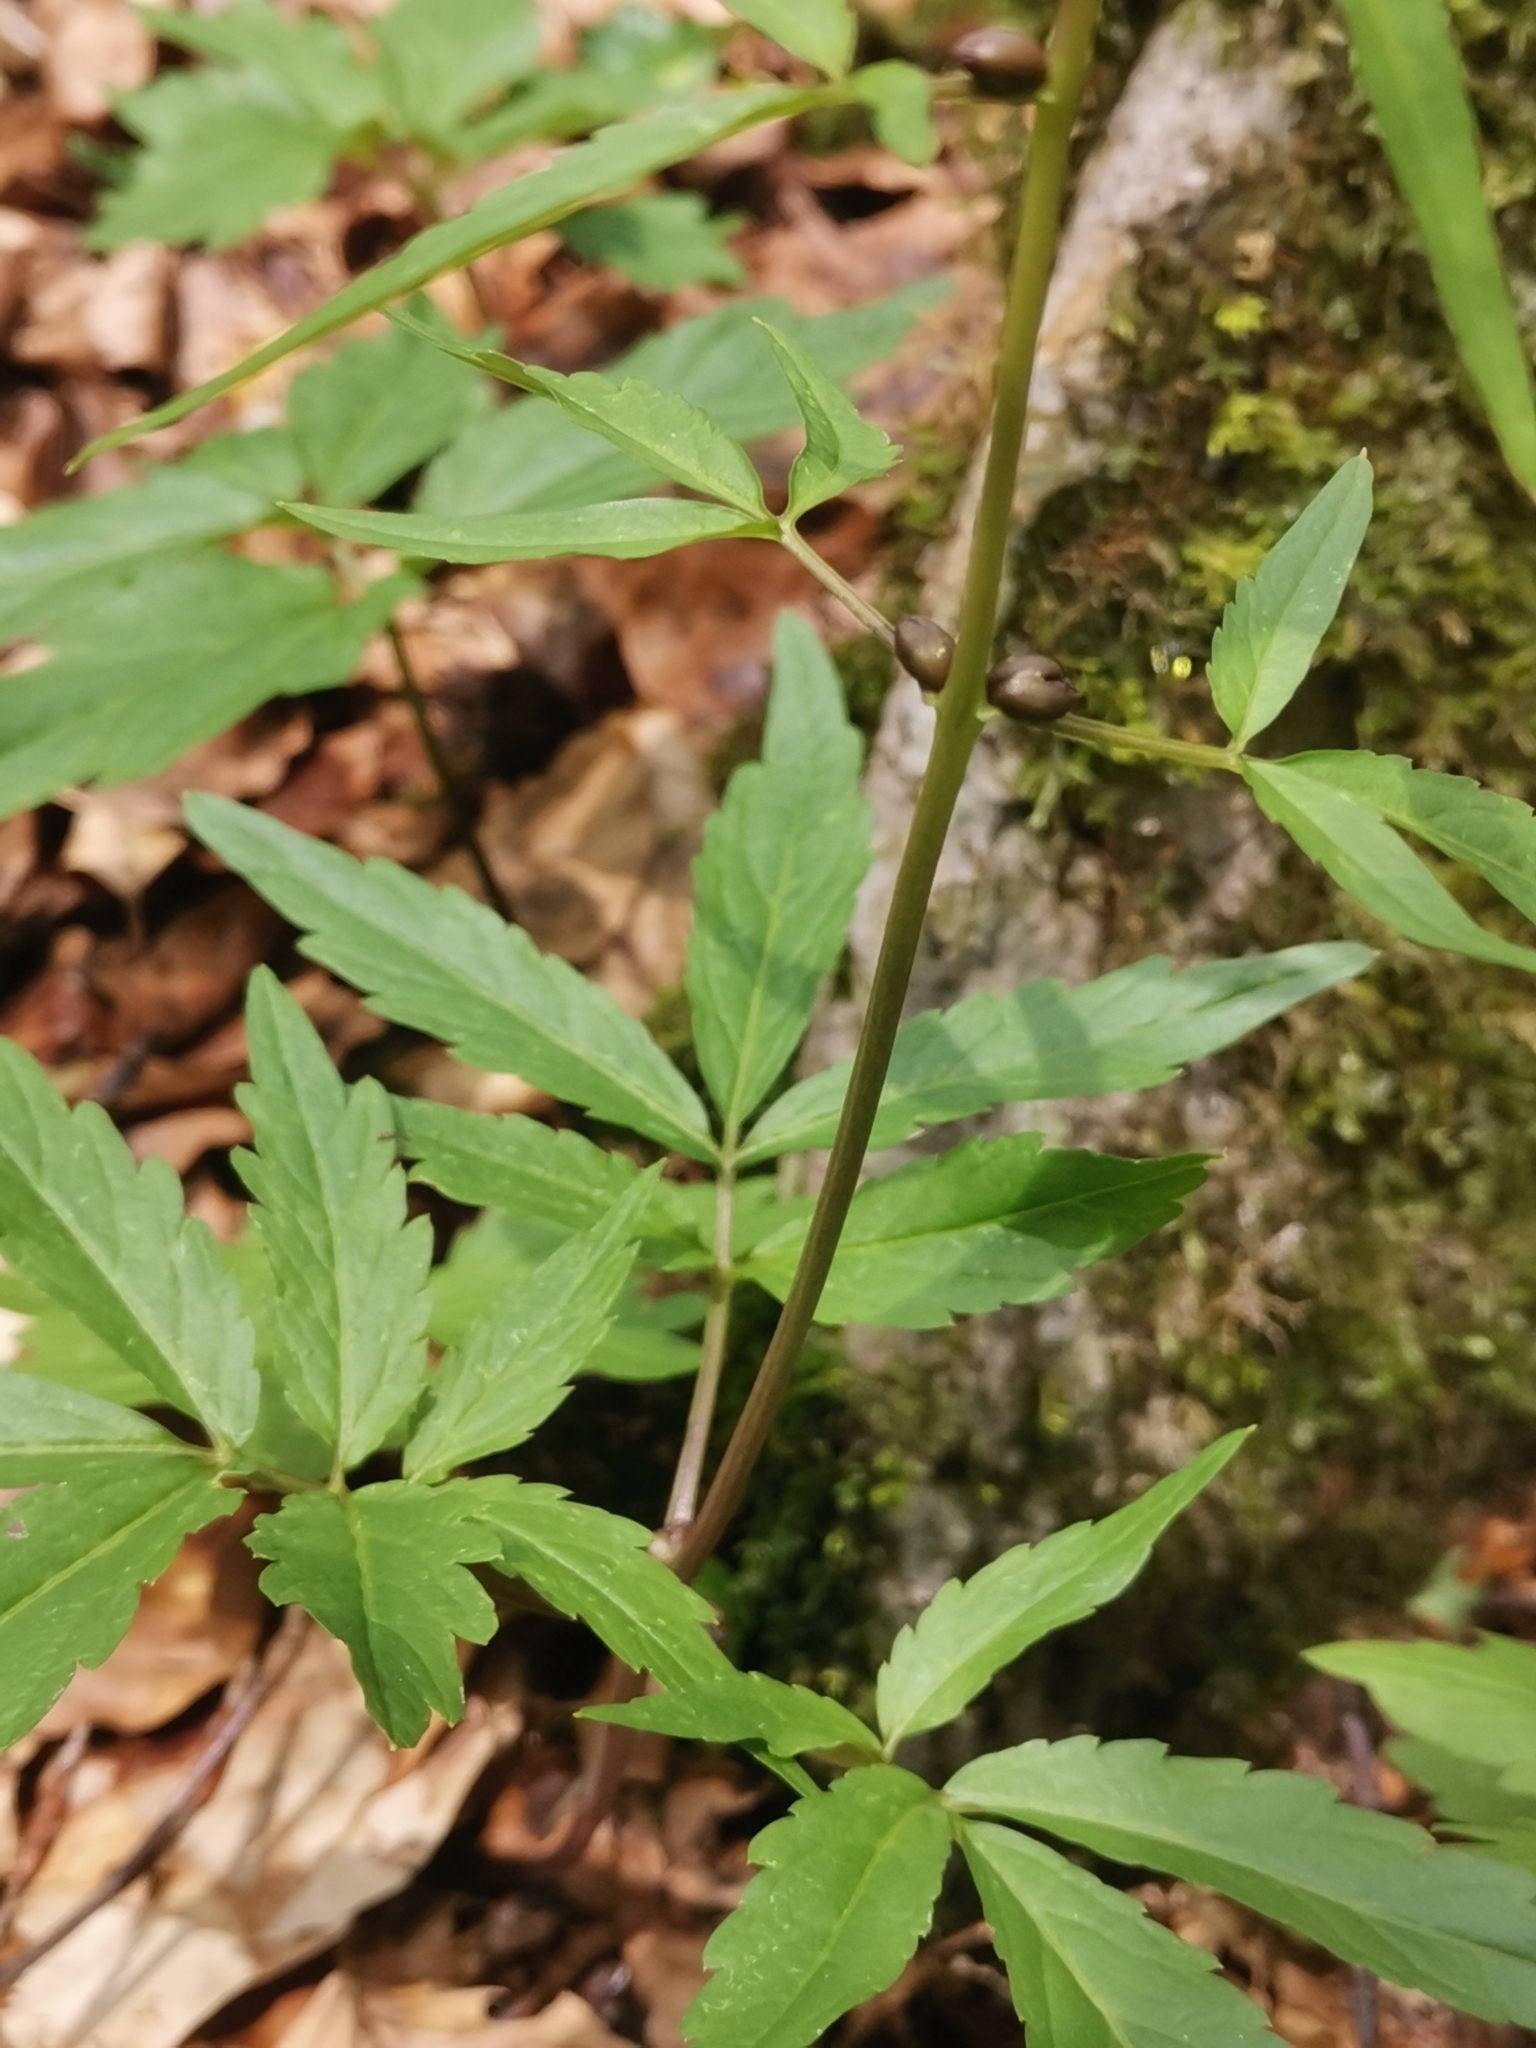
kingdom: Plantae
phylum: Tracheophyta
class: Magnoliopsida
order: Brassicales
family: Brassicaceae
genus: Cardamine
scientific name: Cardamine bulbifera
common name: Coralroot bittercress
